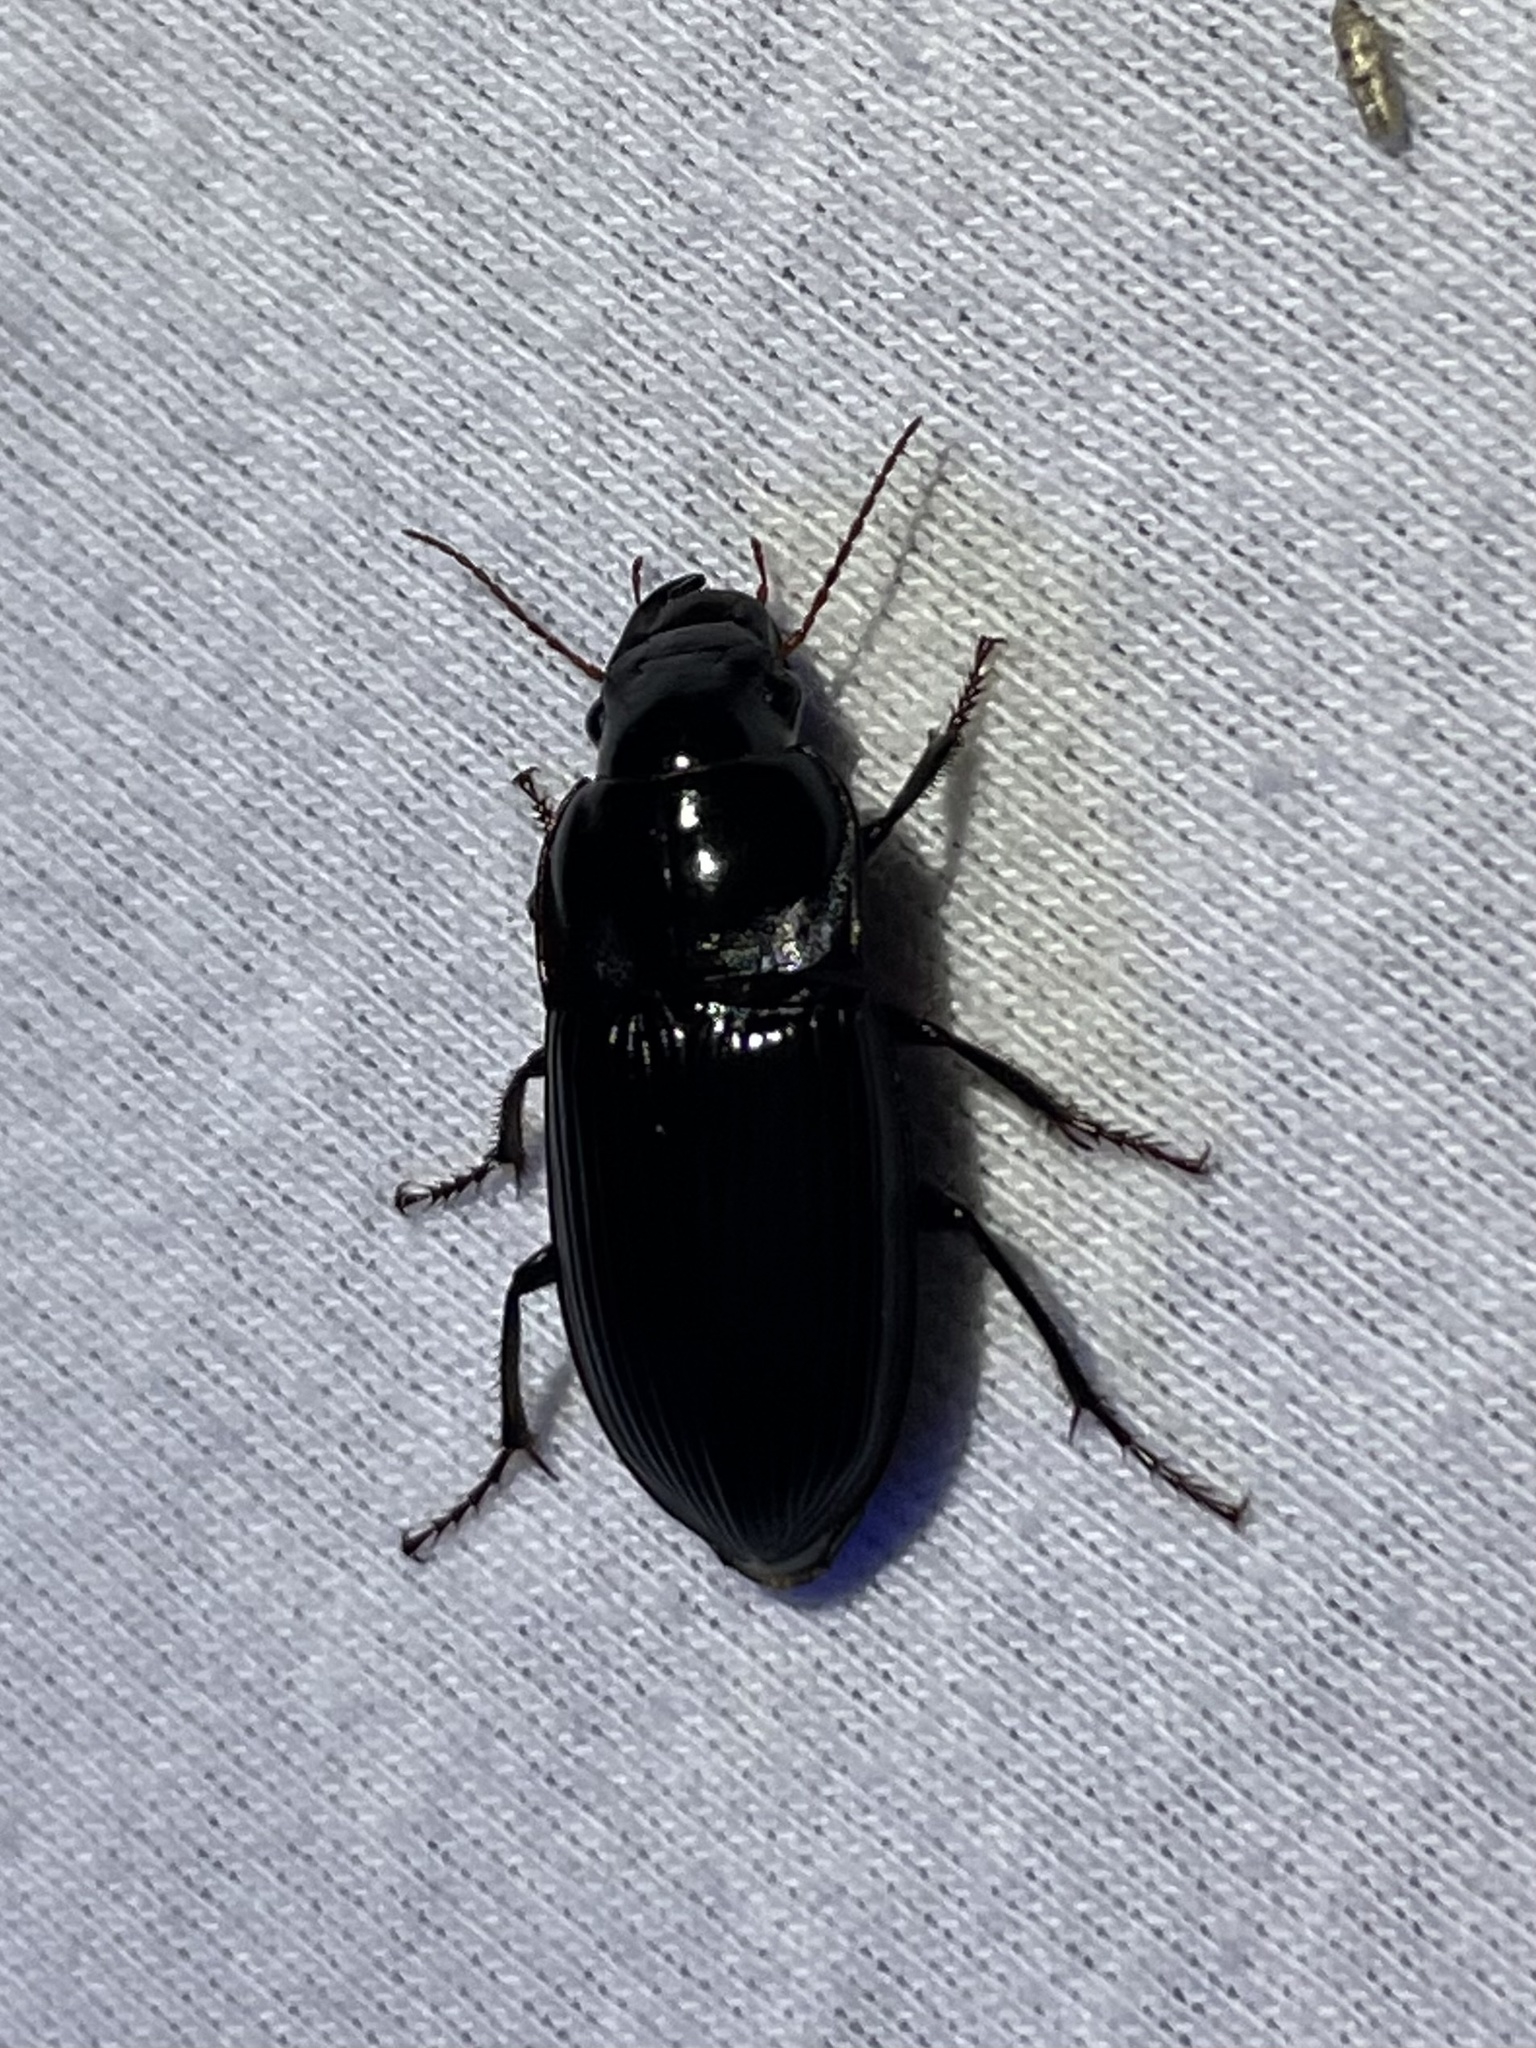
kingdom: Animalia
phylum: Arthropoda
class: Insecta
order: Coleoptera
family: Carabidae
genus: Harpalus
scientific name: Harpalus caliginosus
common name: Murky ground beetle
